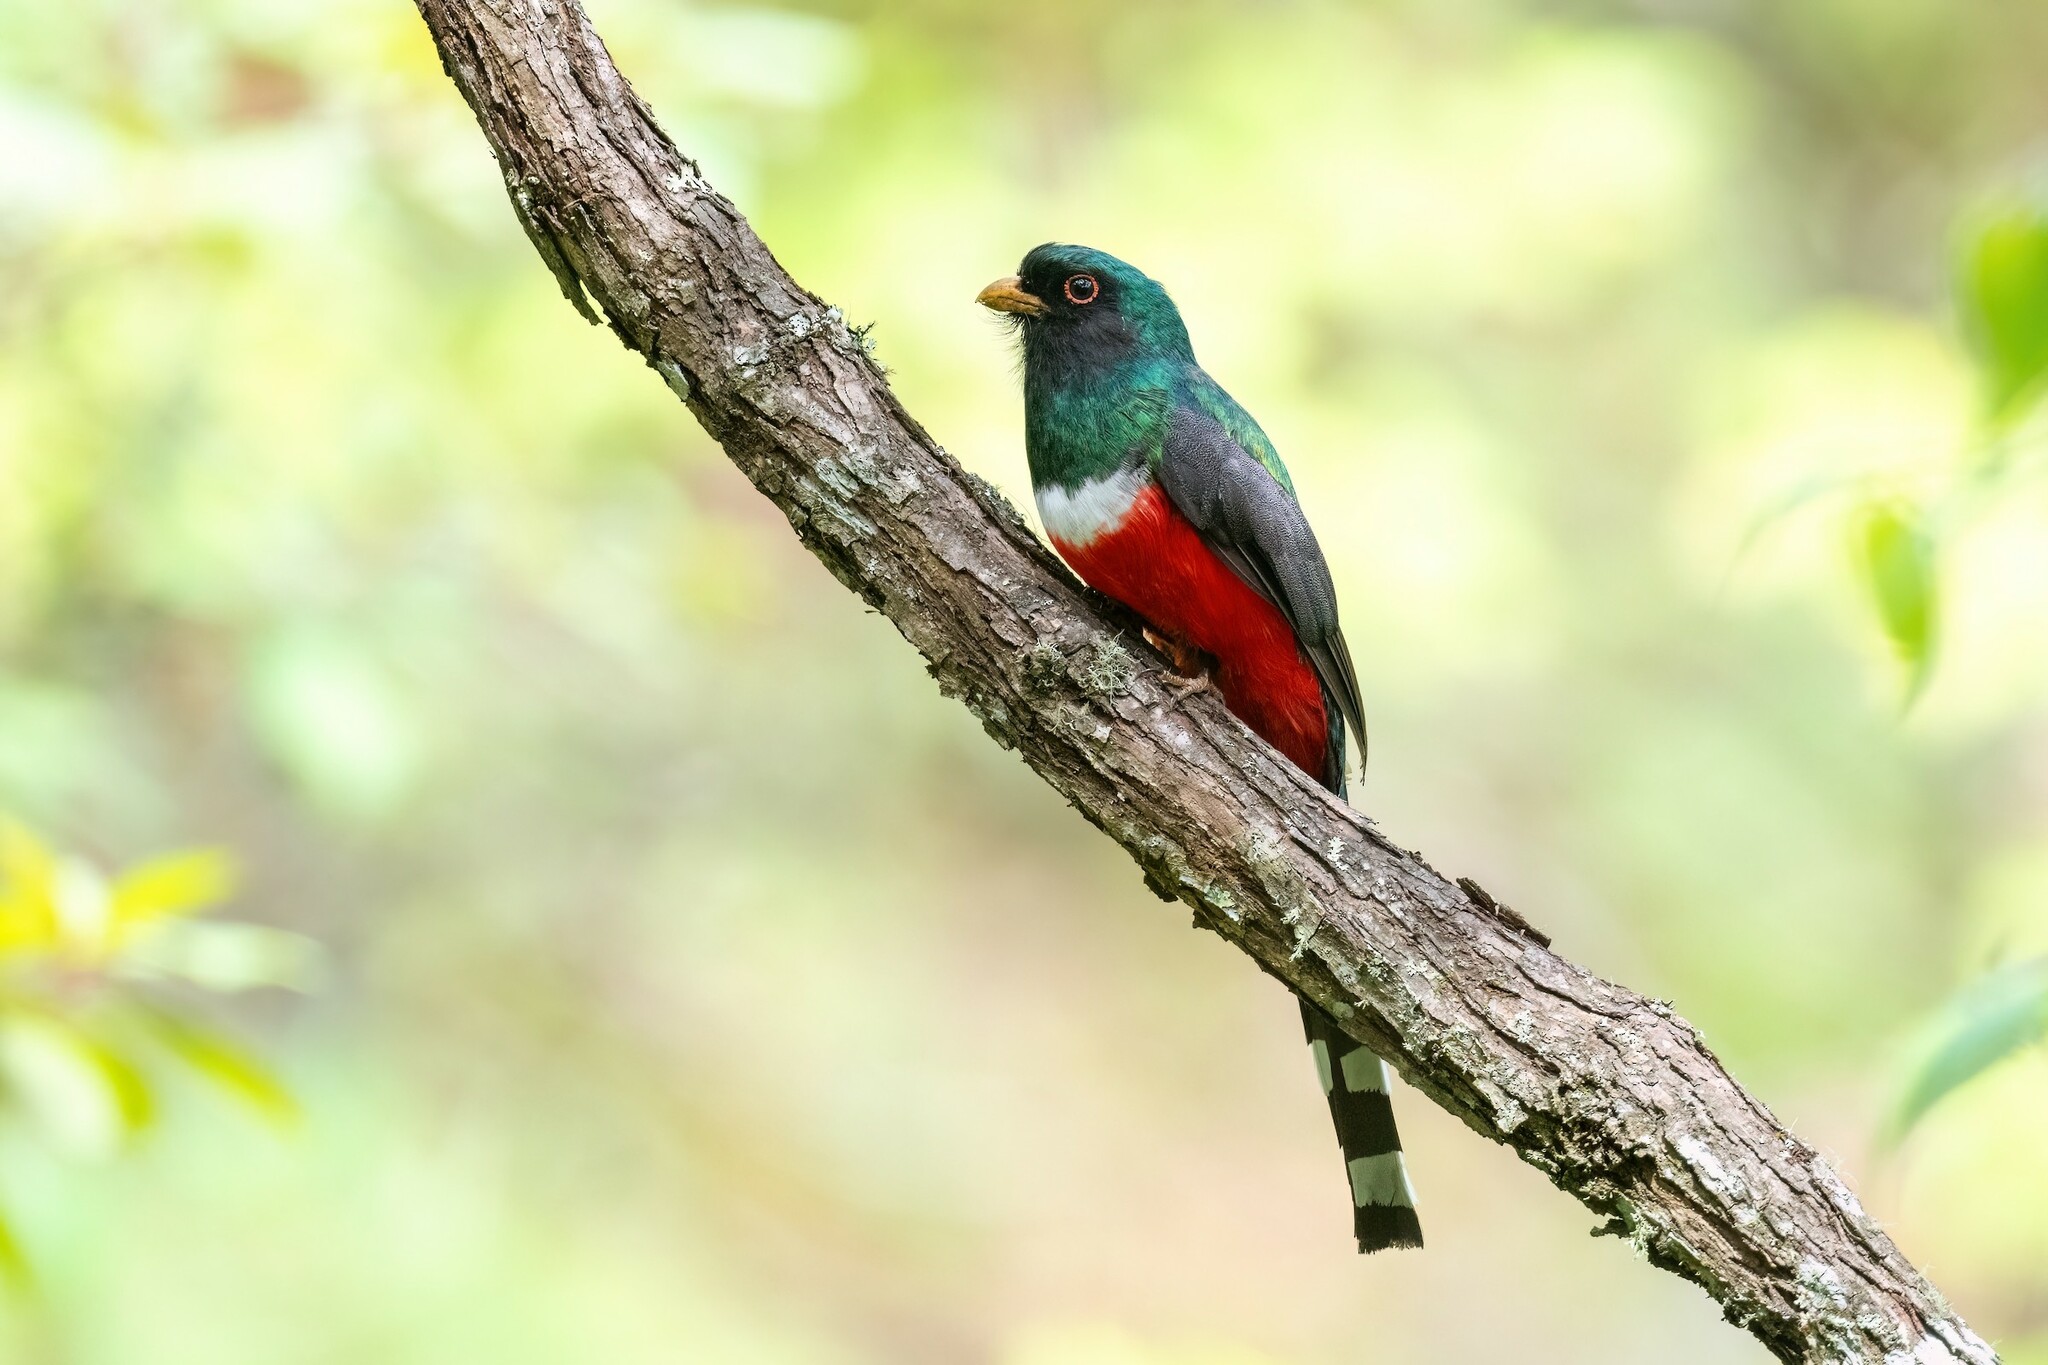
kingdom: Animalia
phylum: Chordata
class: Aves
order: Trogoniformes
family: Trogonidae
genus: Trogon
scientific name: Trogon mexicanus
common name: Mountain trogon
